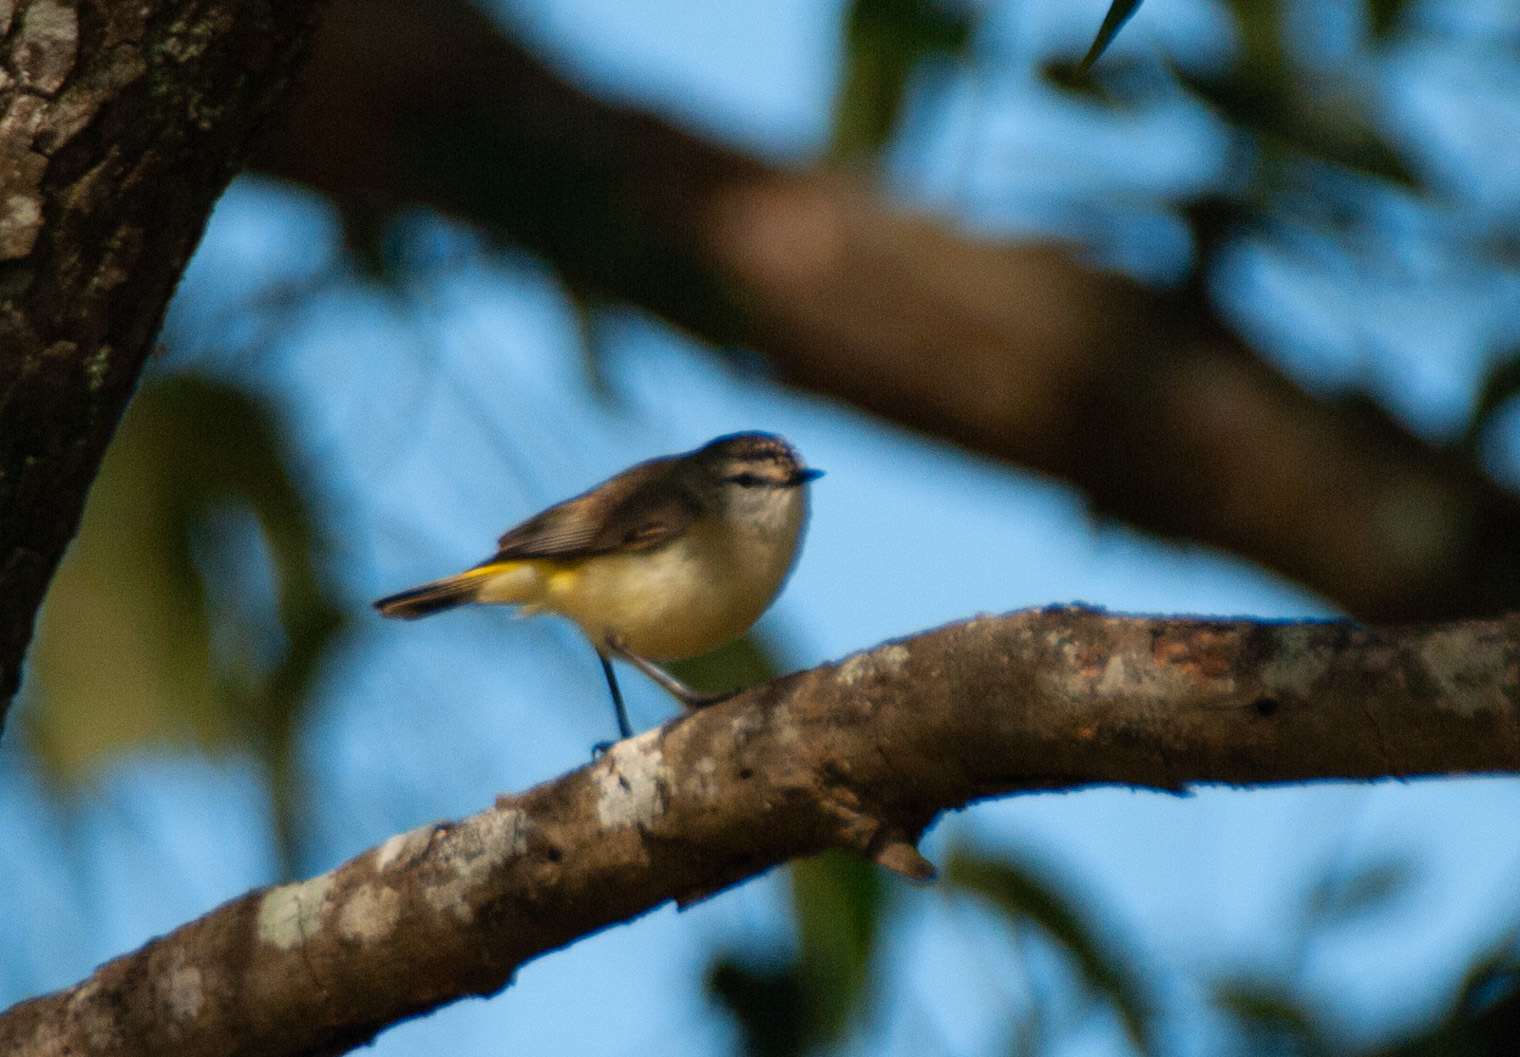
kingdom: Animalia
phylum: Chordata
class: Aves
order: Passeriformes
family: Acanthizidae
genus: Acanthiza
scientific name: Acanthiza chrysorrhoa
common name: Yellow-rumped thornbill
